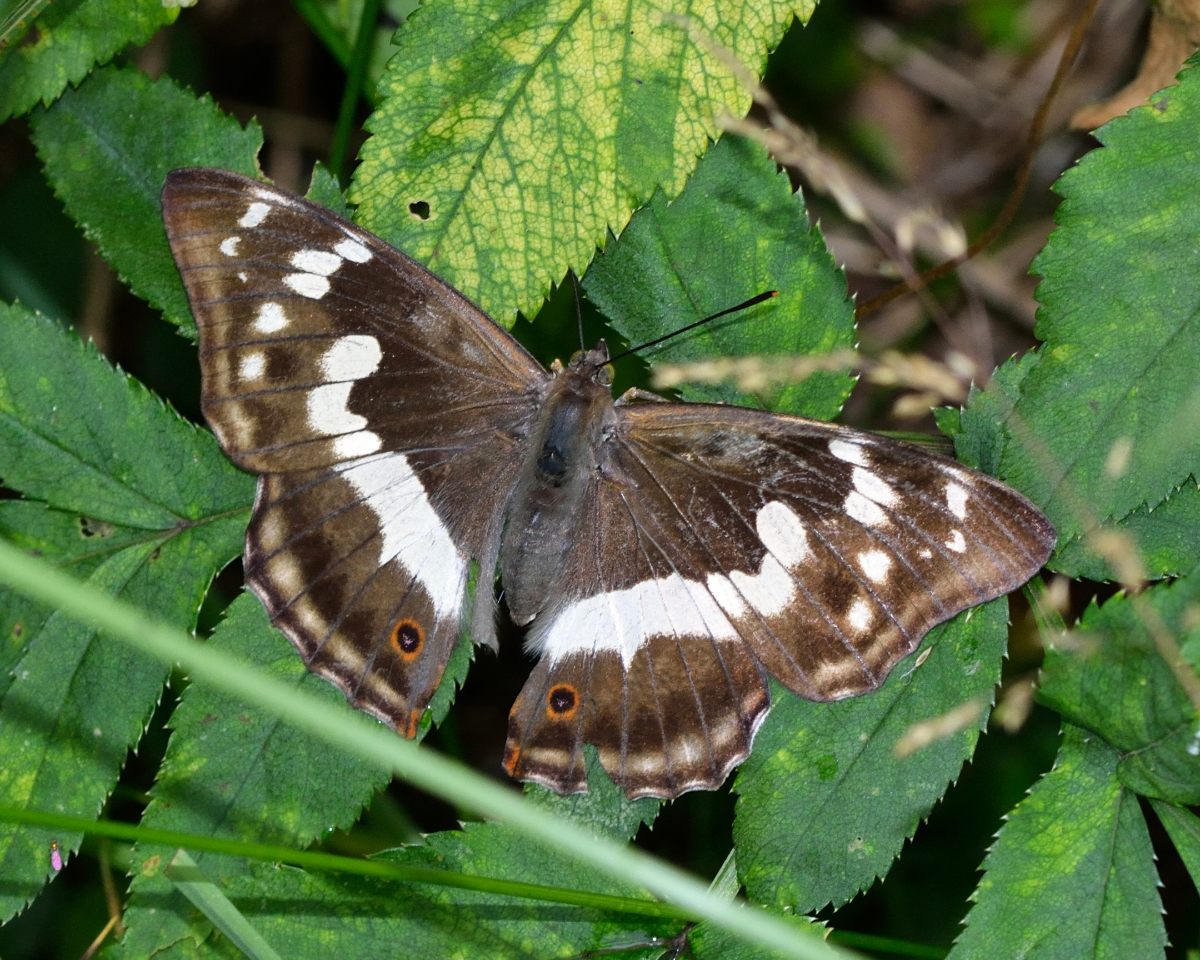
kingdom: Animalia
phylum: Arthropoda
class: Insecta
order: Lepidoptera
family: Nymphalidae
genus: Apatura
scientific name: Apatura iris
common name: Purple emperor
